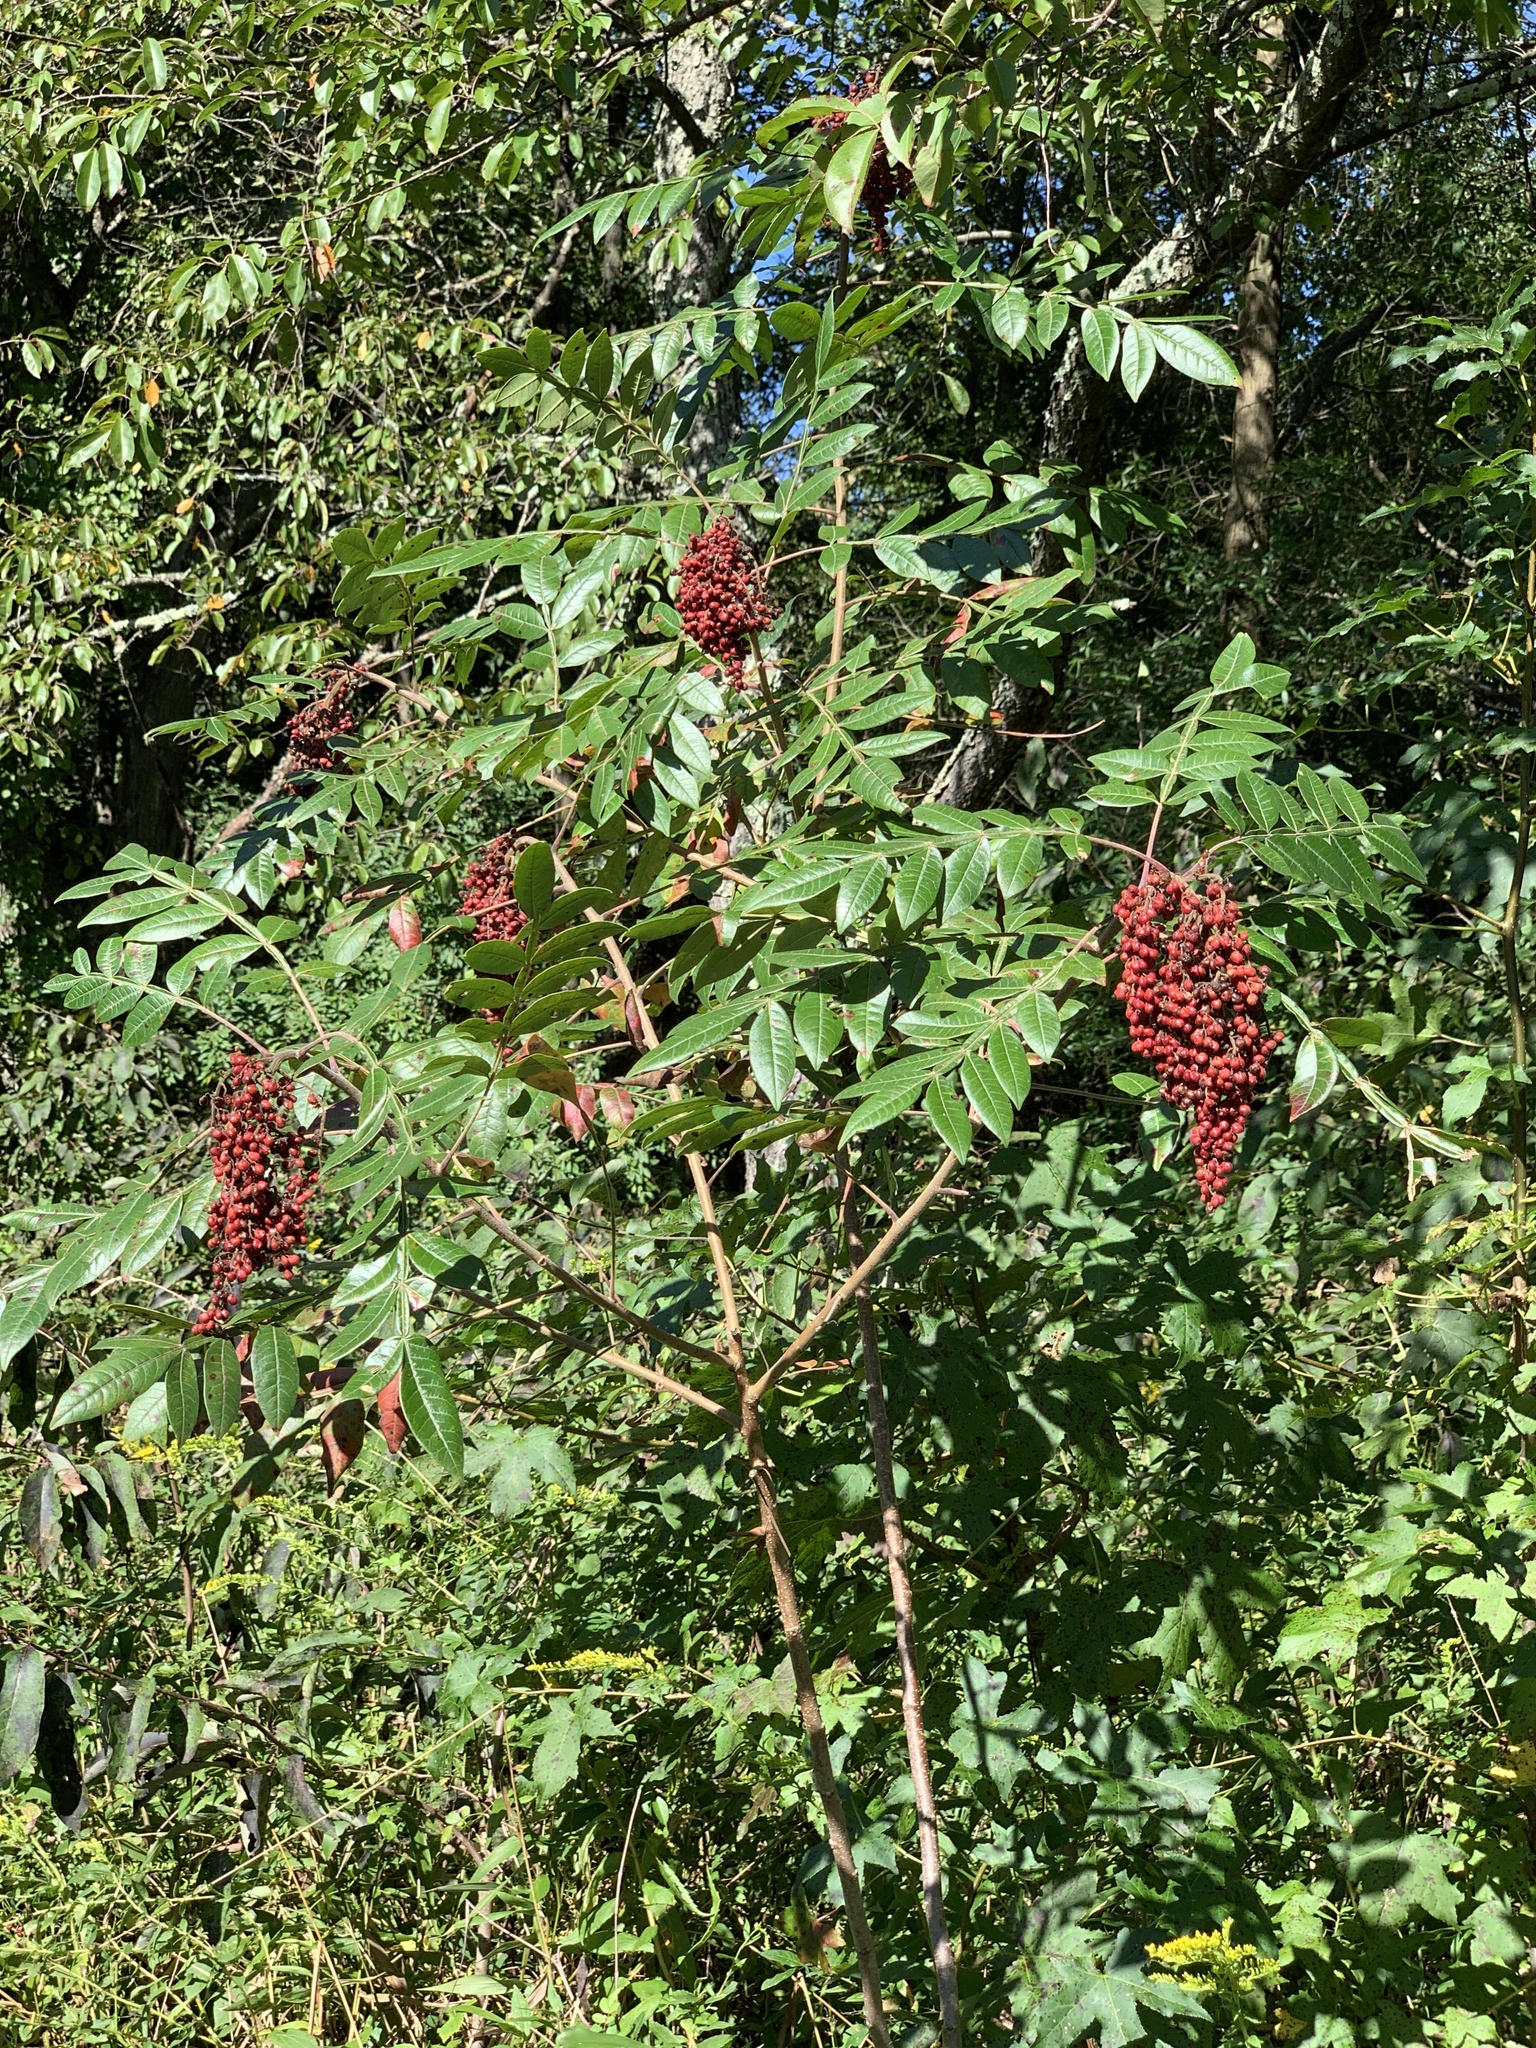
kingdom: Plantae
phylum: Tracheophyta
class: Magnoliopsida
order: Sapindales
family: Anacardiaceae
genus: Rhus
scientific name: Rhus copallina
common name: Shining sumac
